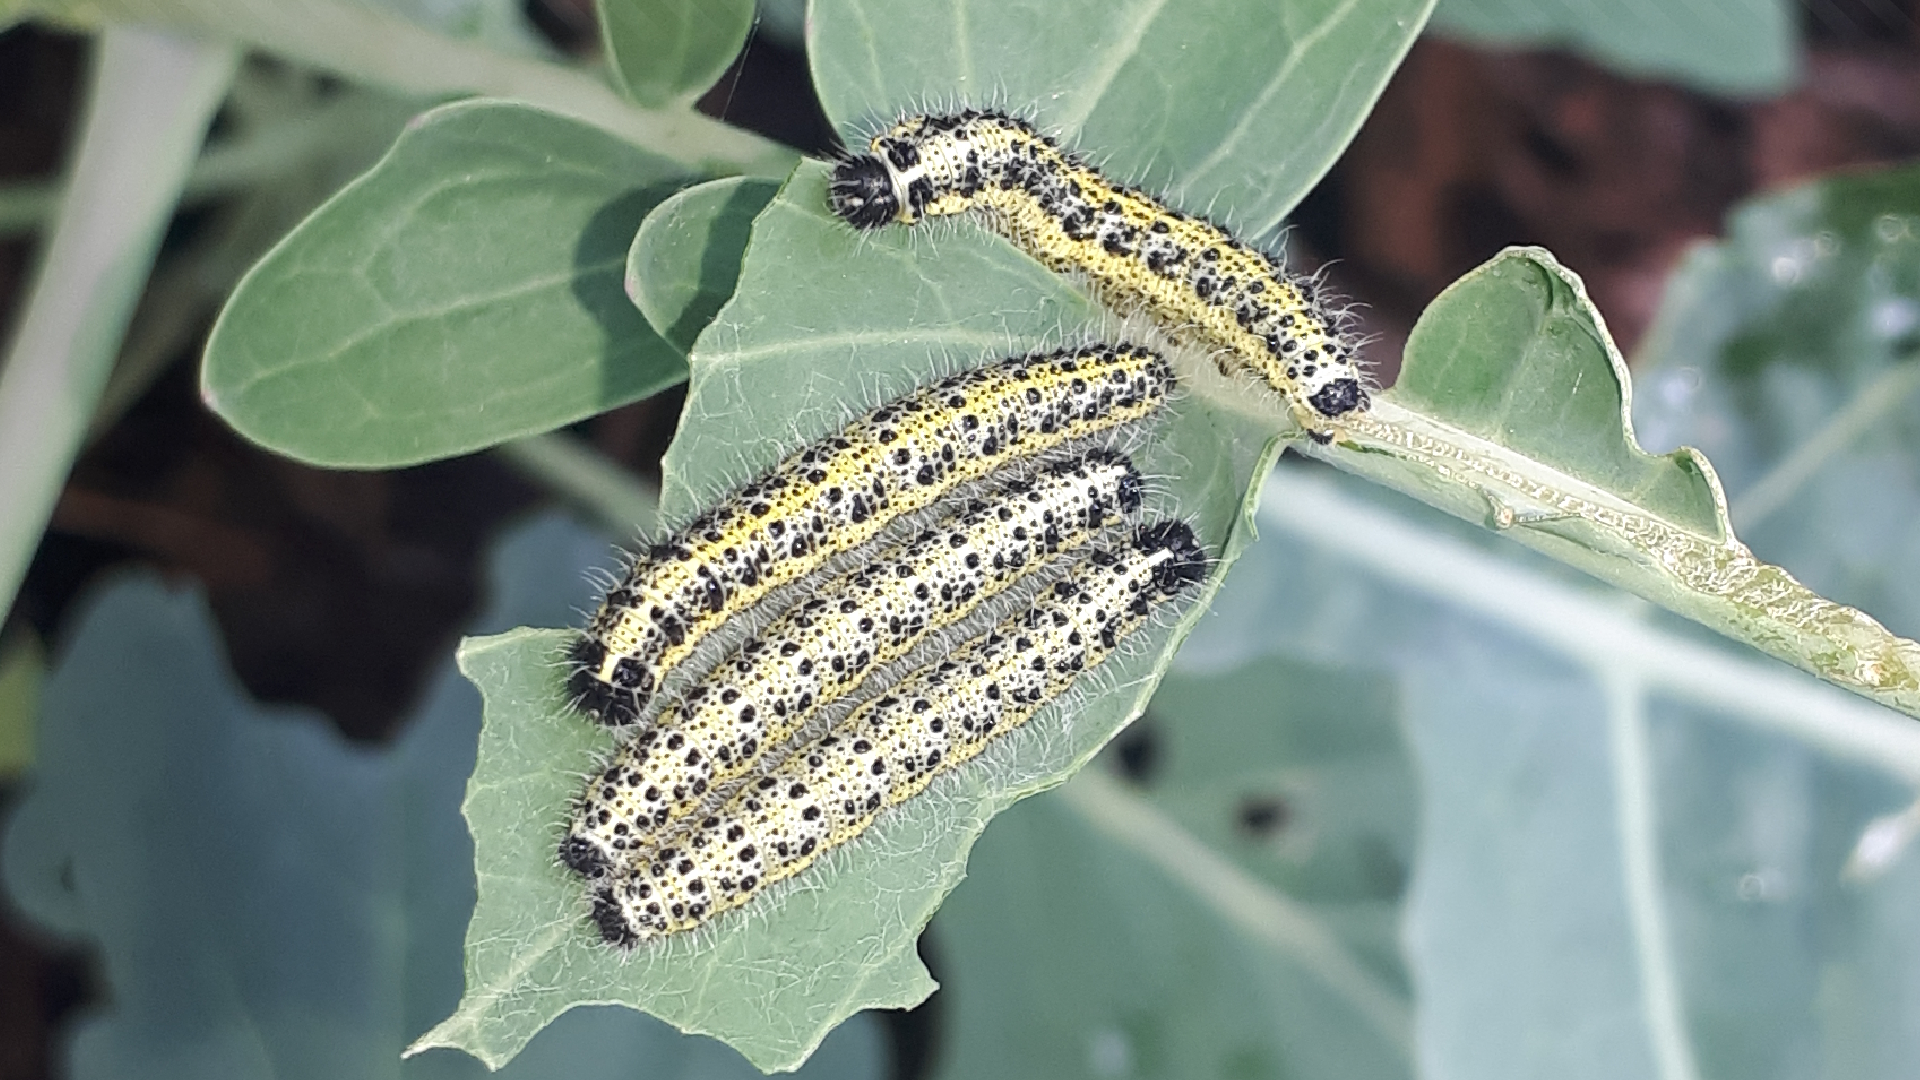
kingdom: Animalia
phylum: Arthropoda
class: Insecta
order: Lepidoptera
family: Pieridae
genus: Pieris
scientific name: Pieris brassicae
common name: Large white
